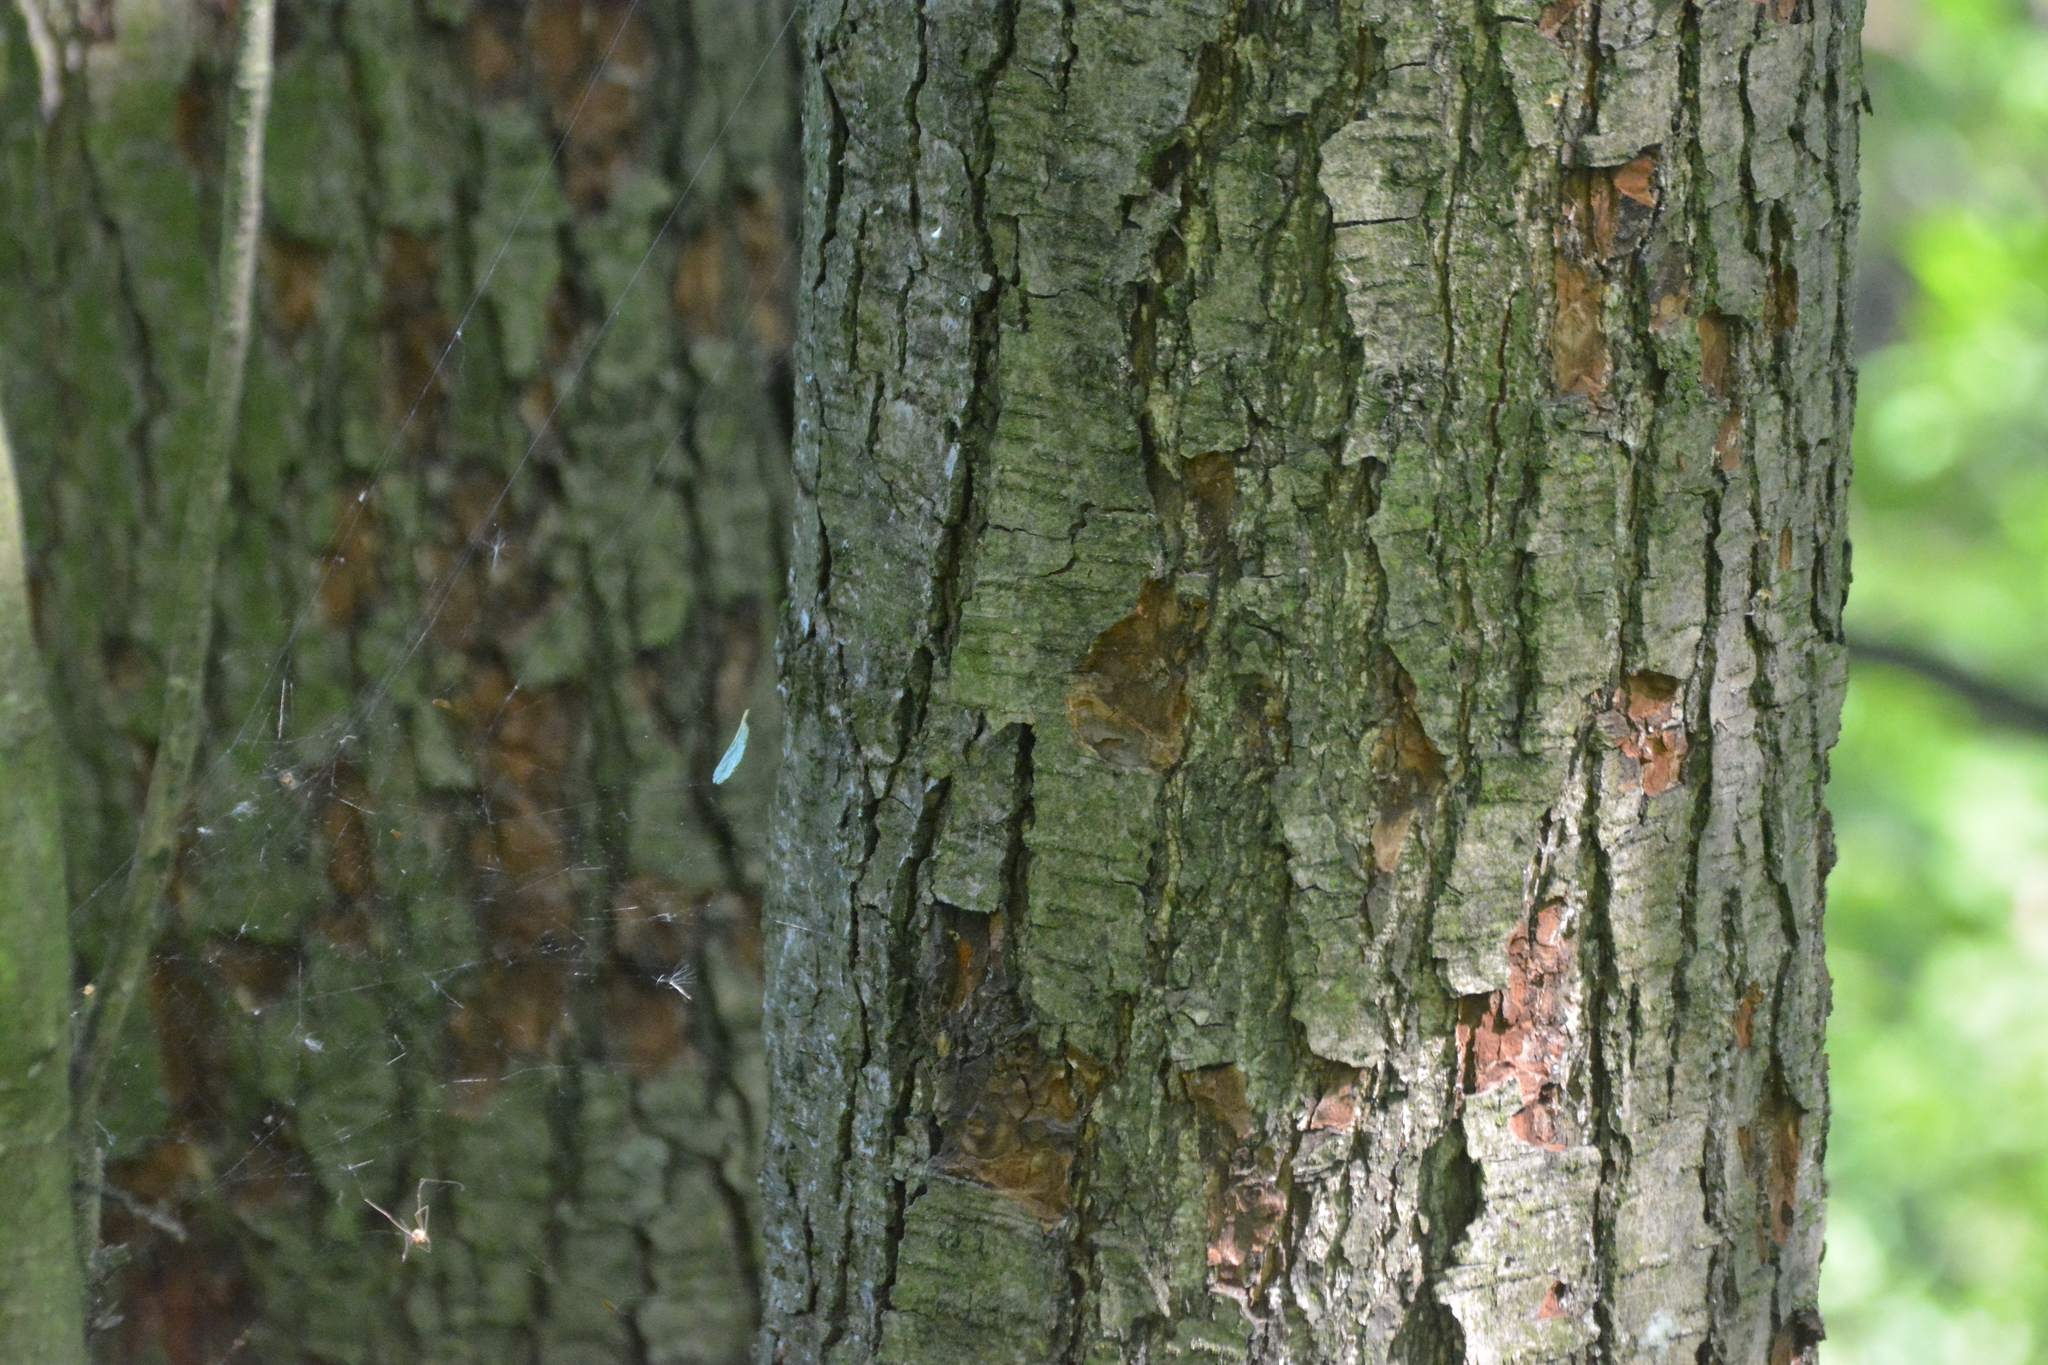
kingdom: Plantae
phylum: Tracheophyta
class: Magnoliopsida
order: Fagales
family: Betulaceae
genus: Alnus
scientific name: Alnus glutinosa
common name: Black alder
